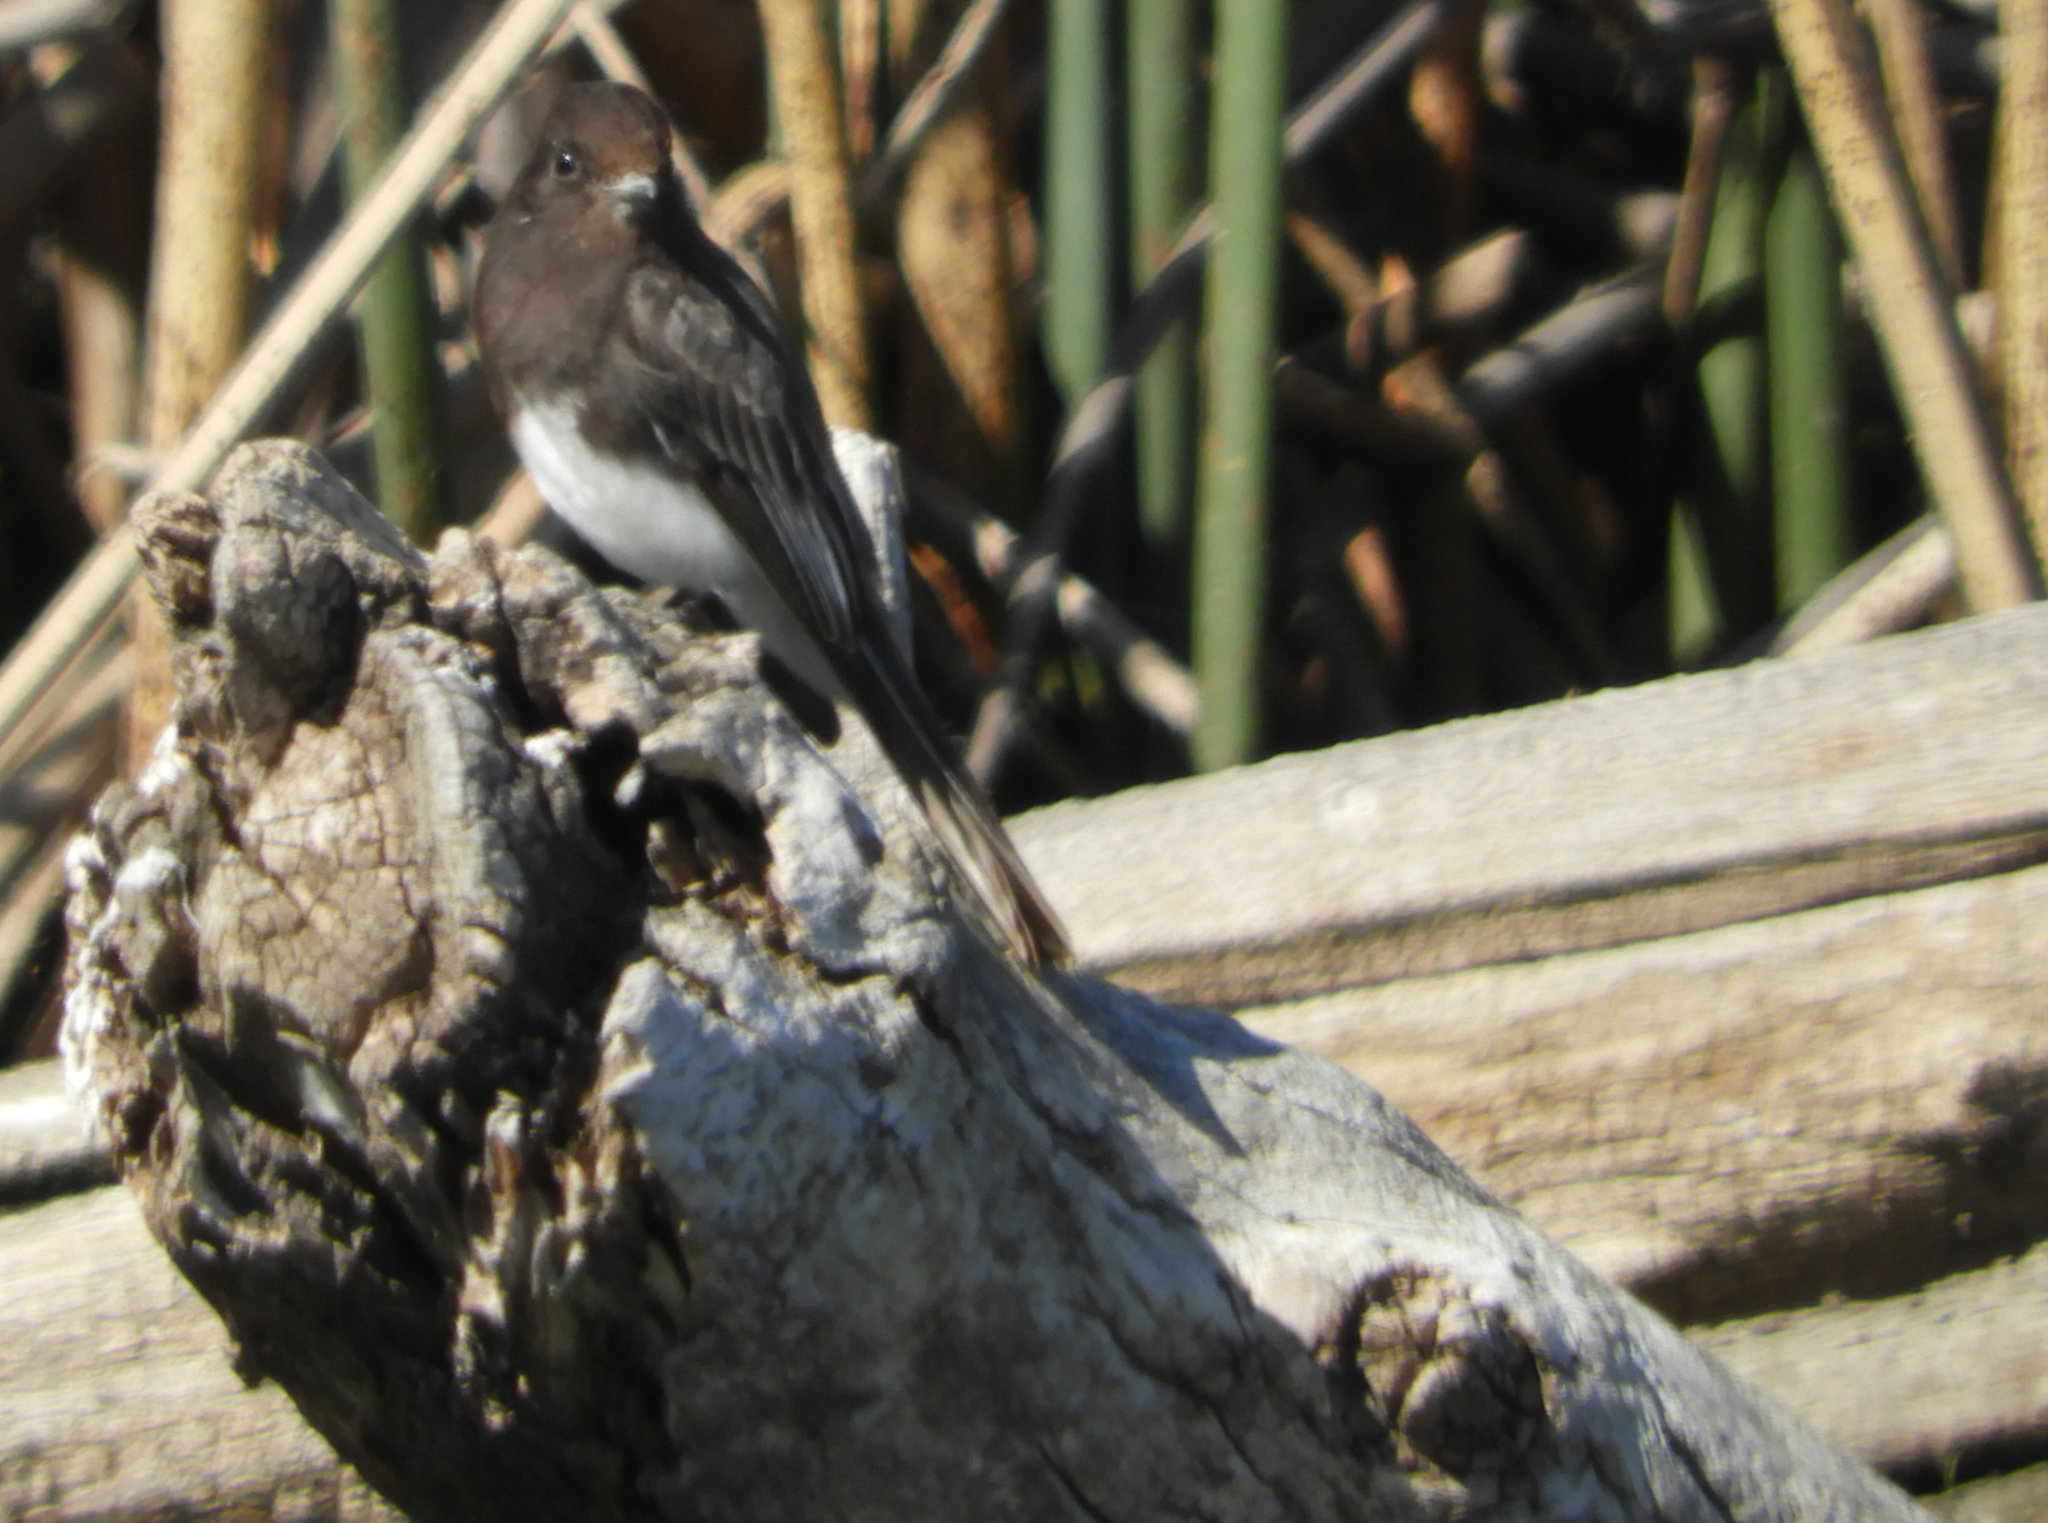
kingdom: Animalia
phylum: Chordata
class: Aves
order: Passeriformes
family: Tyrannidae
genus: Sayornis
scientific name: Sayornis nigricans
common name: Black phoebe
